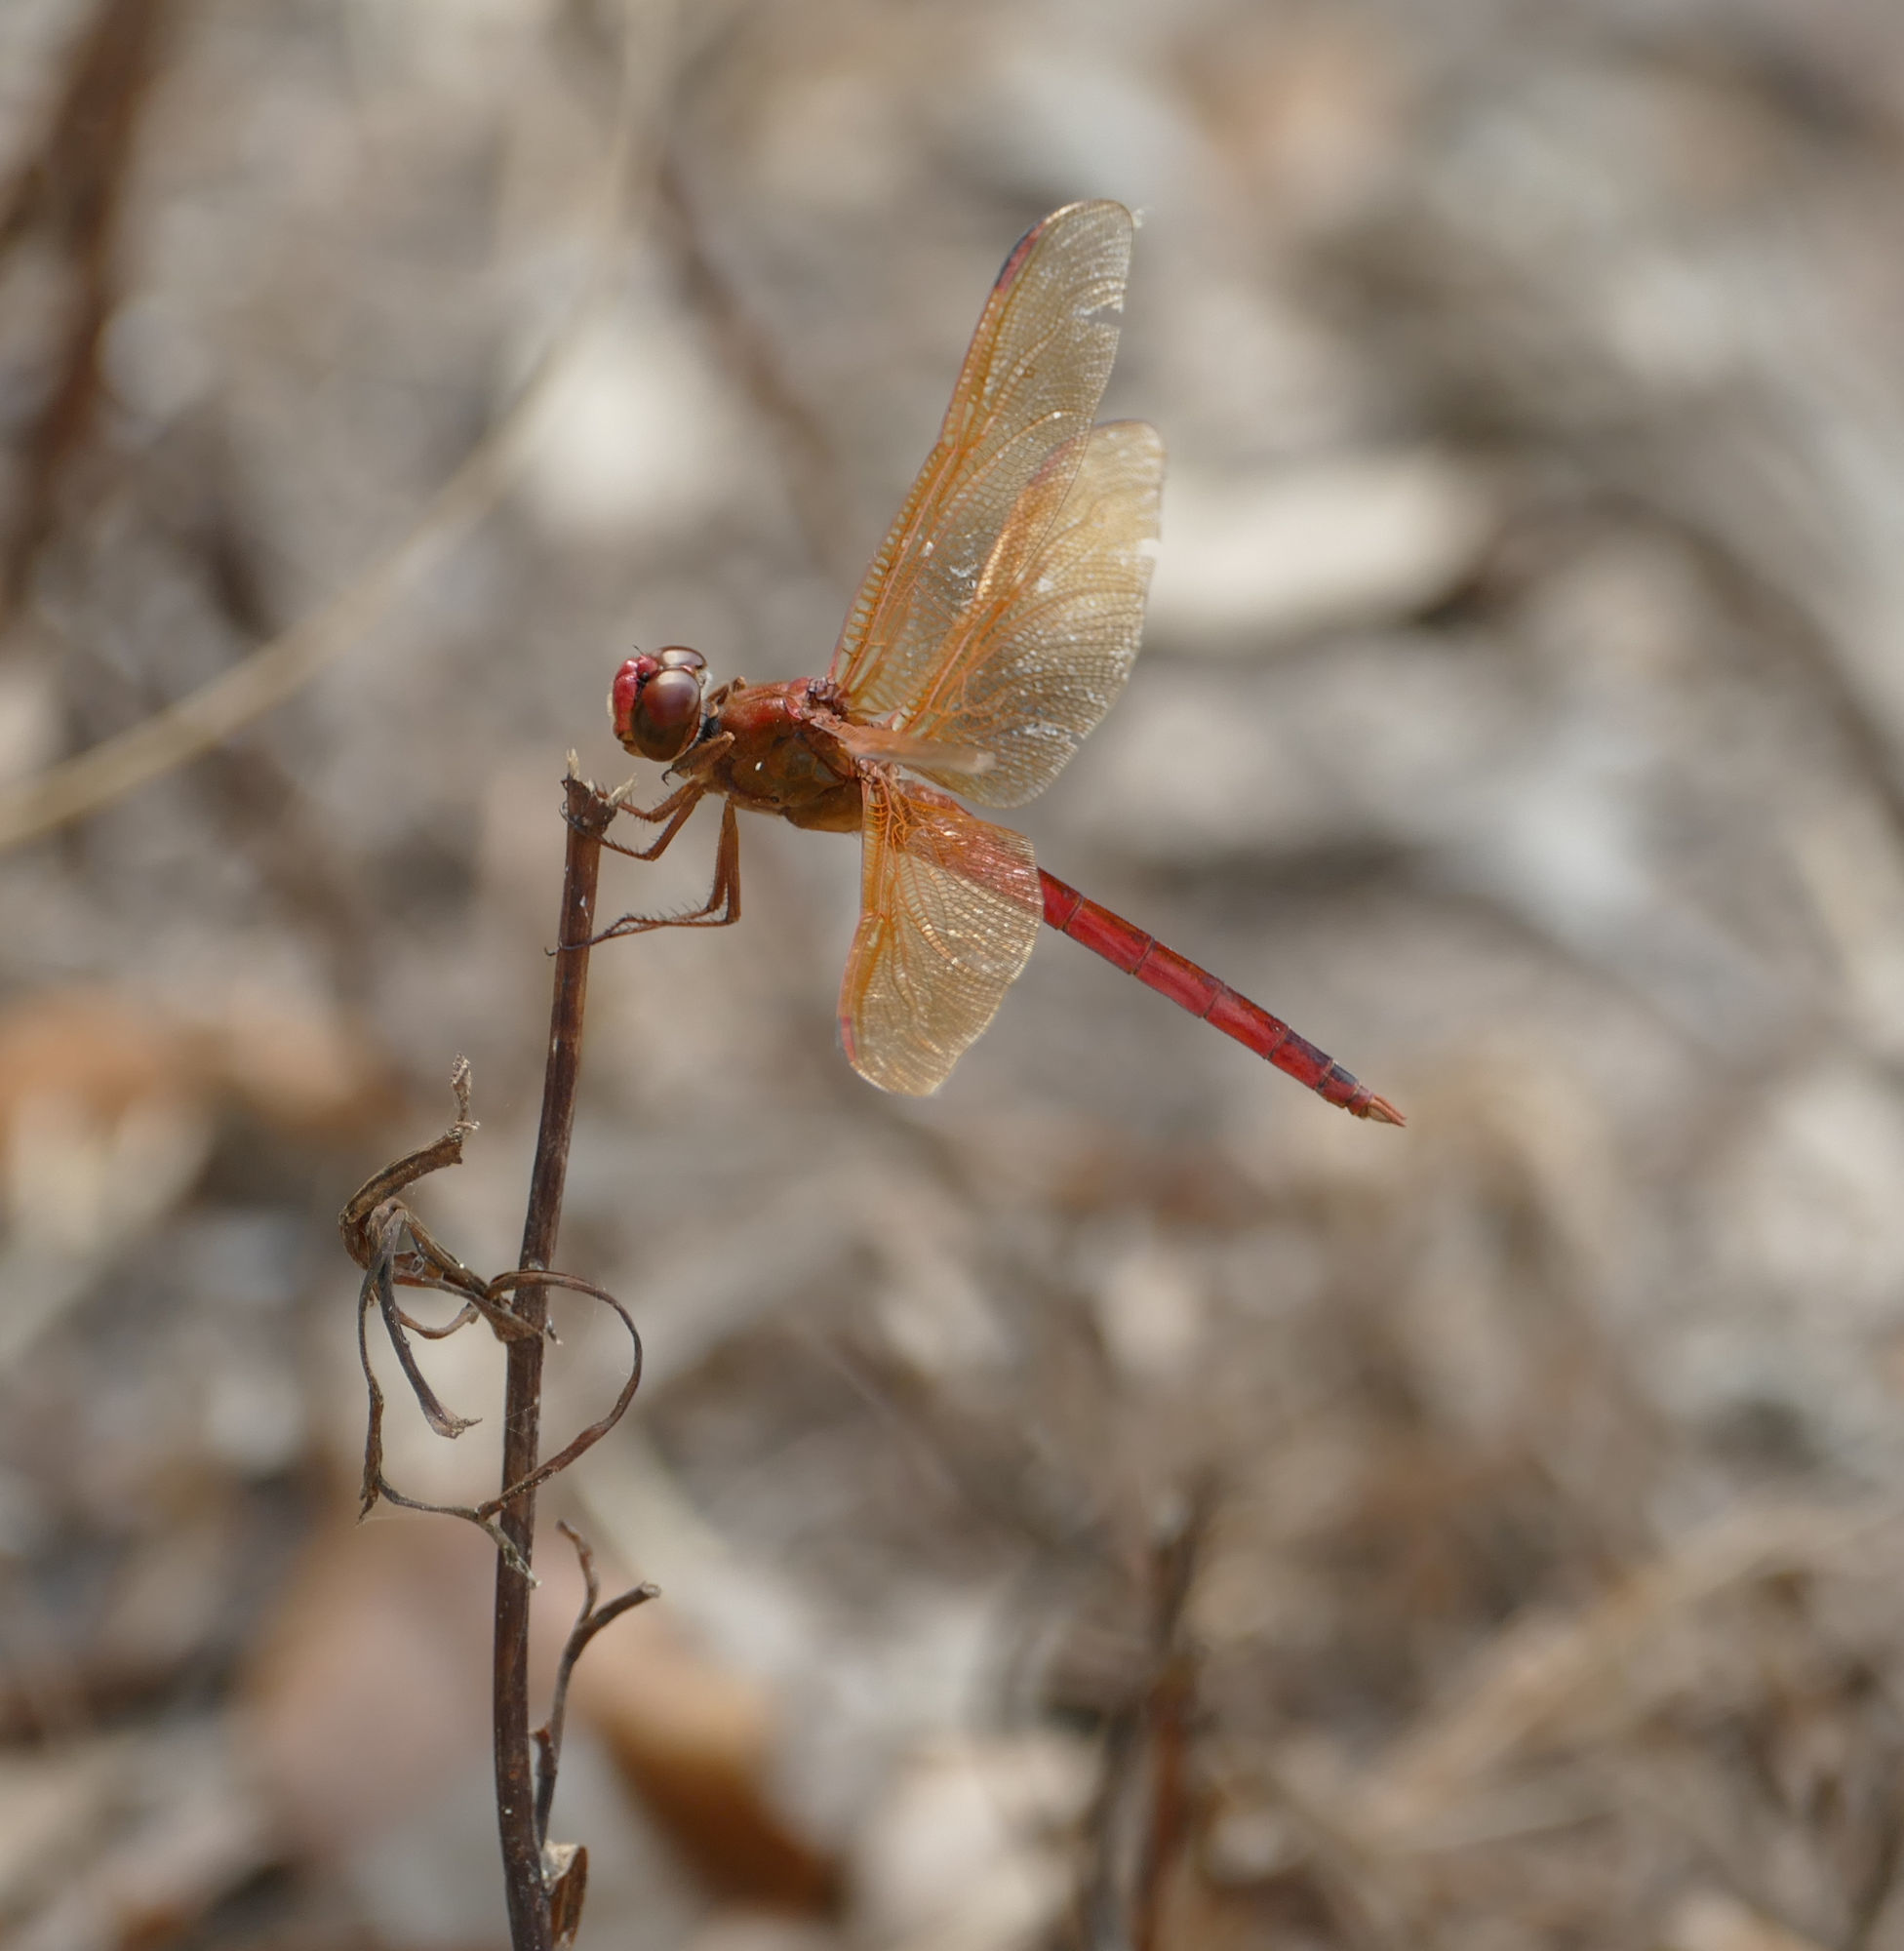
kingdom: Animalia
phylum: Arthropoda
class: Insecta
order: Odonata
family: Libellulidae
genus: Libellula
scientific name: Libellula needhami
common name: Needham's skimmer
